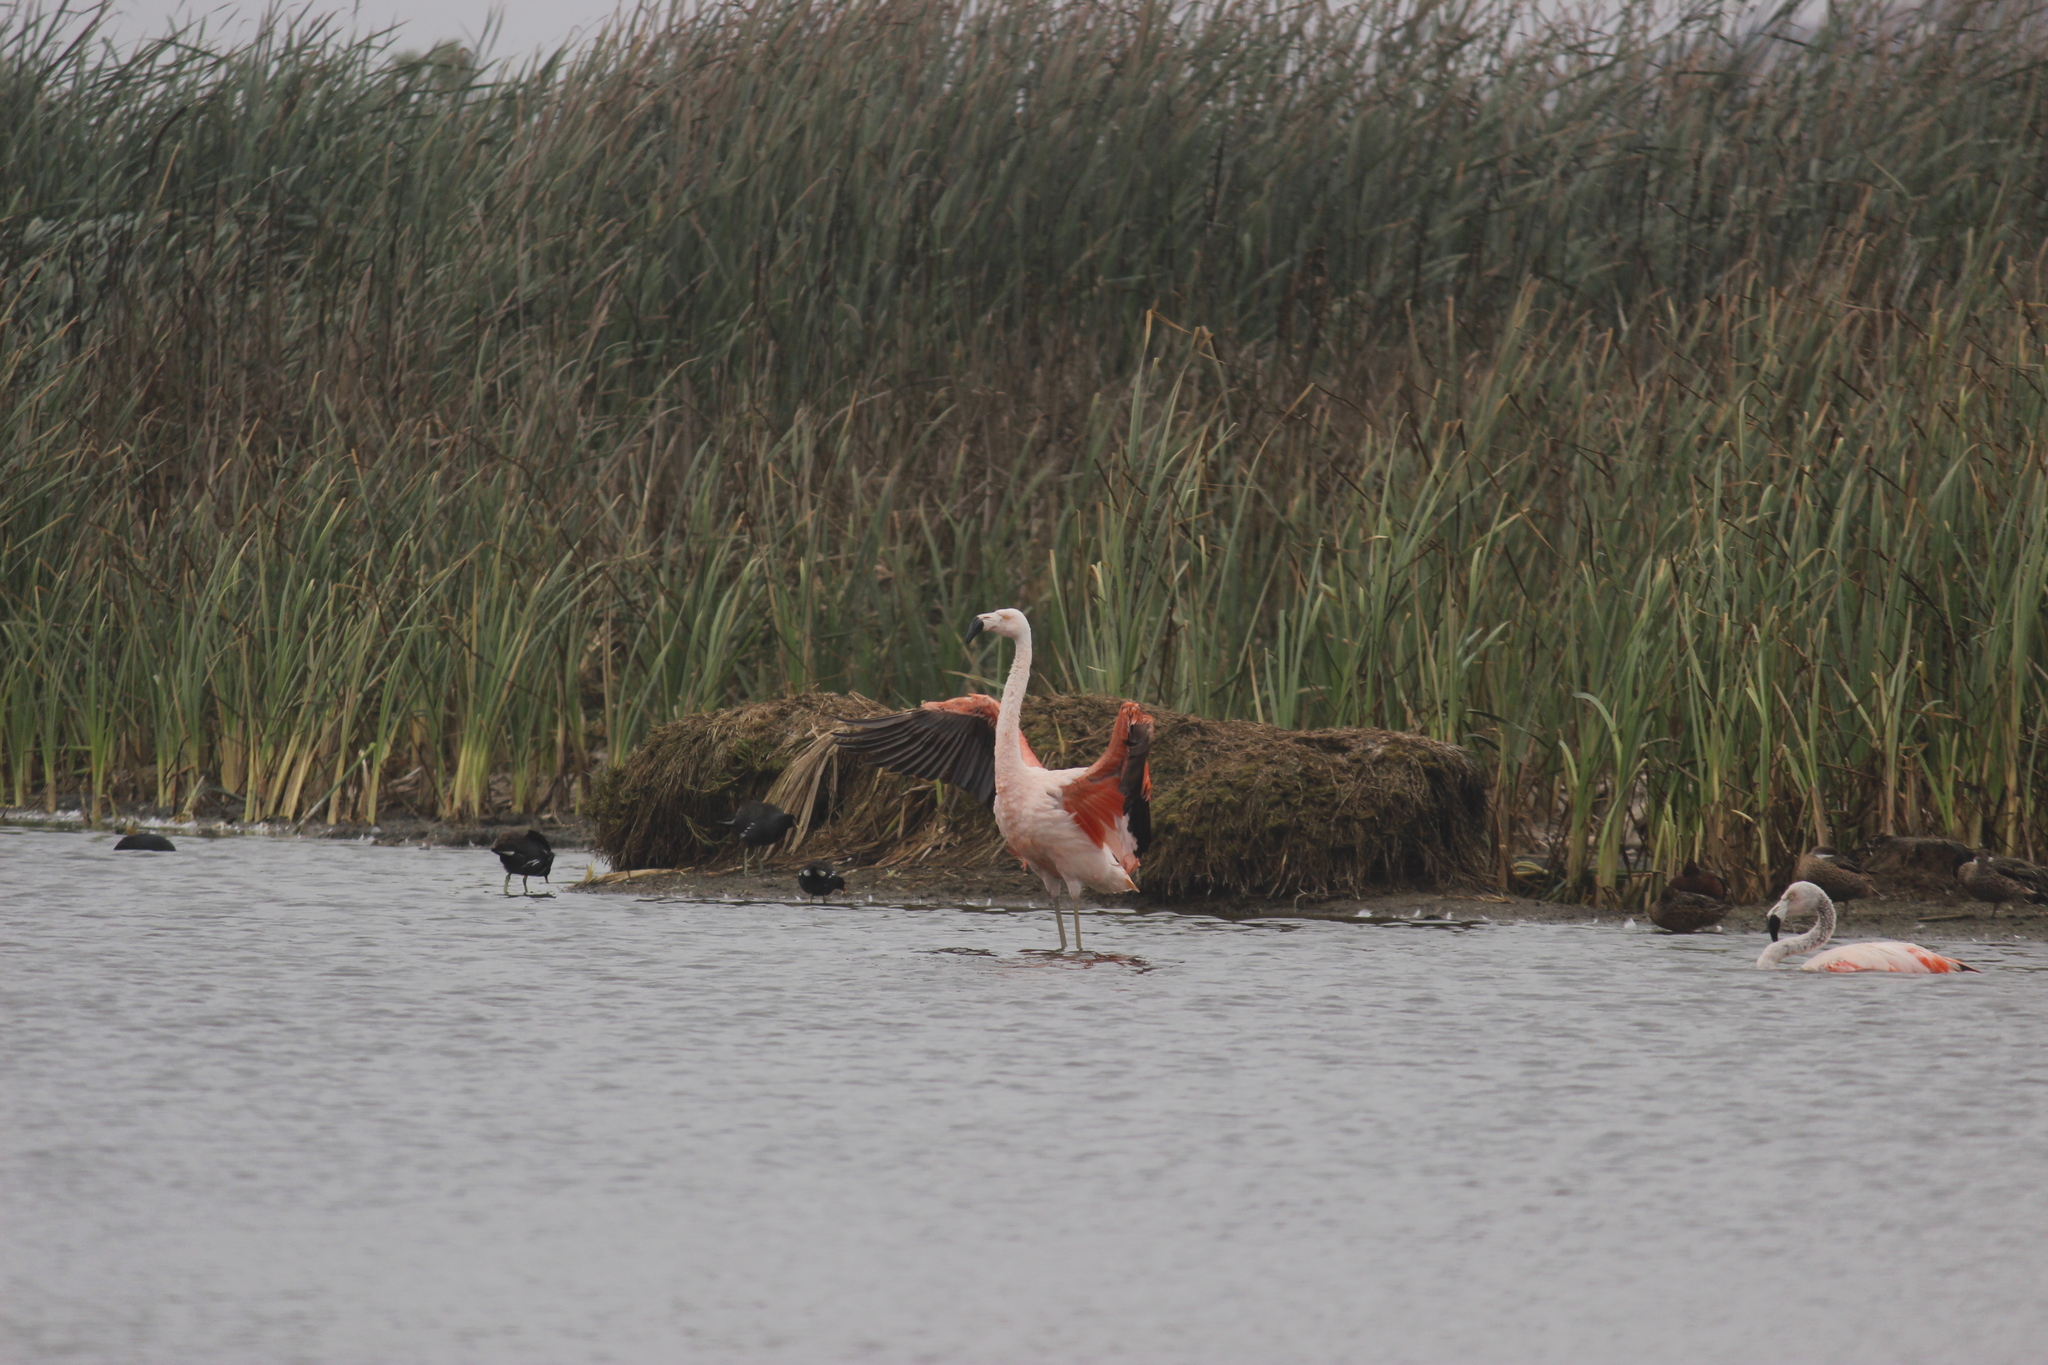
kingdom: Animalia
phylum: Chordata
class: Aves
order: Phoenicopteriformes
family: Phoenicopteridae
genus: Phoenicopterus
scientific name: Phoenicopterus chilensis
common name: Chilean flamingo
